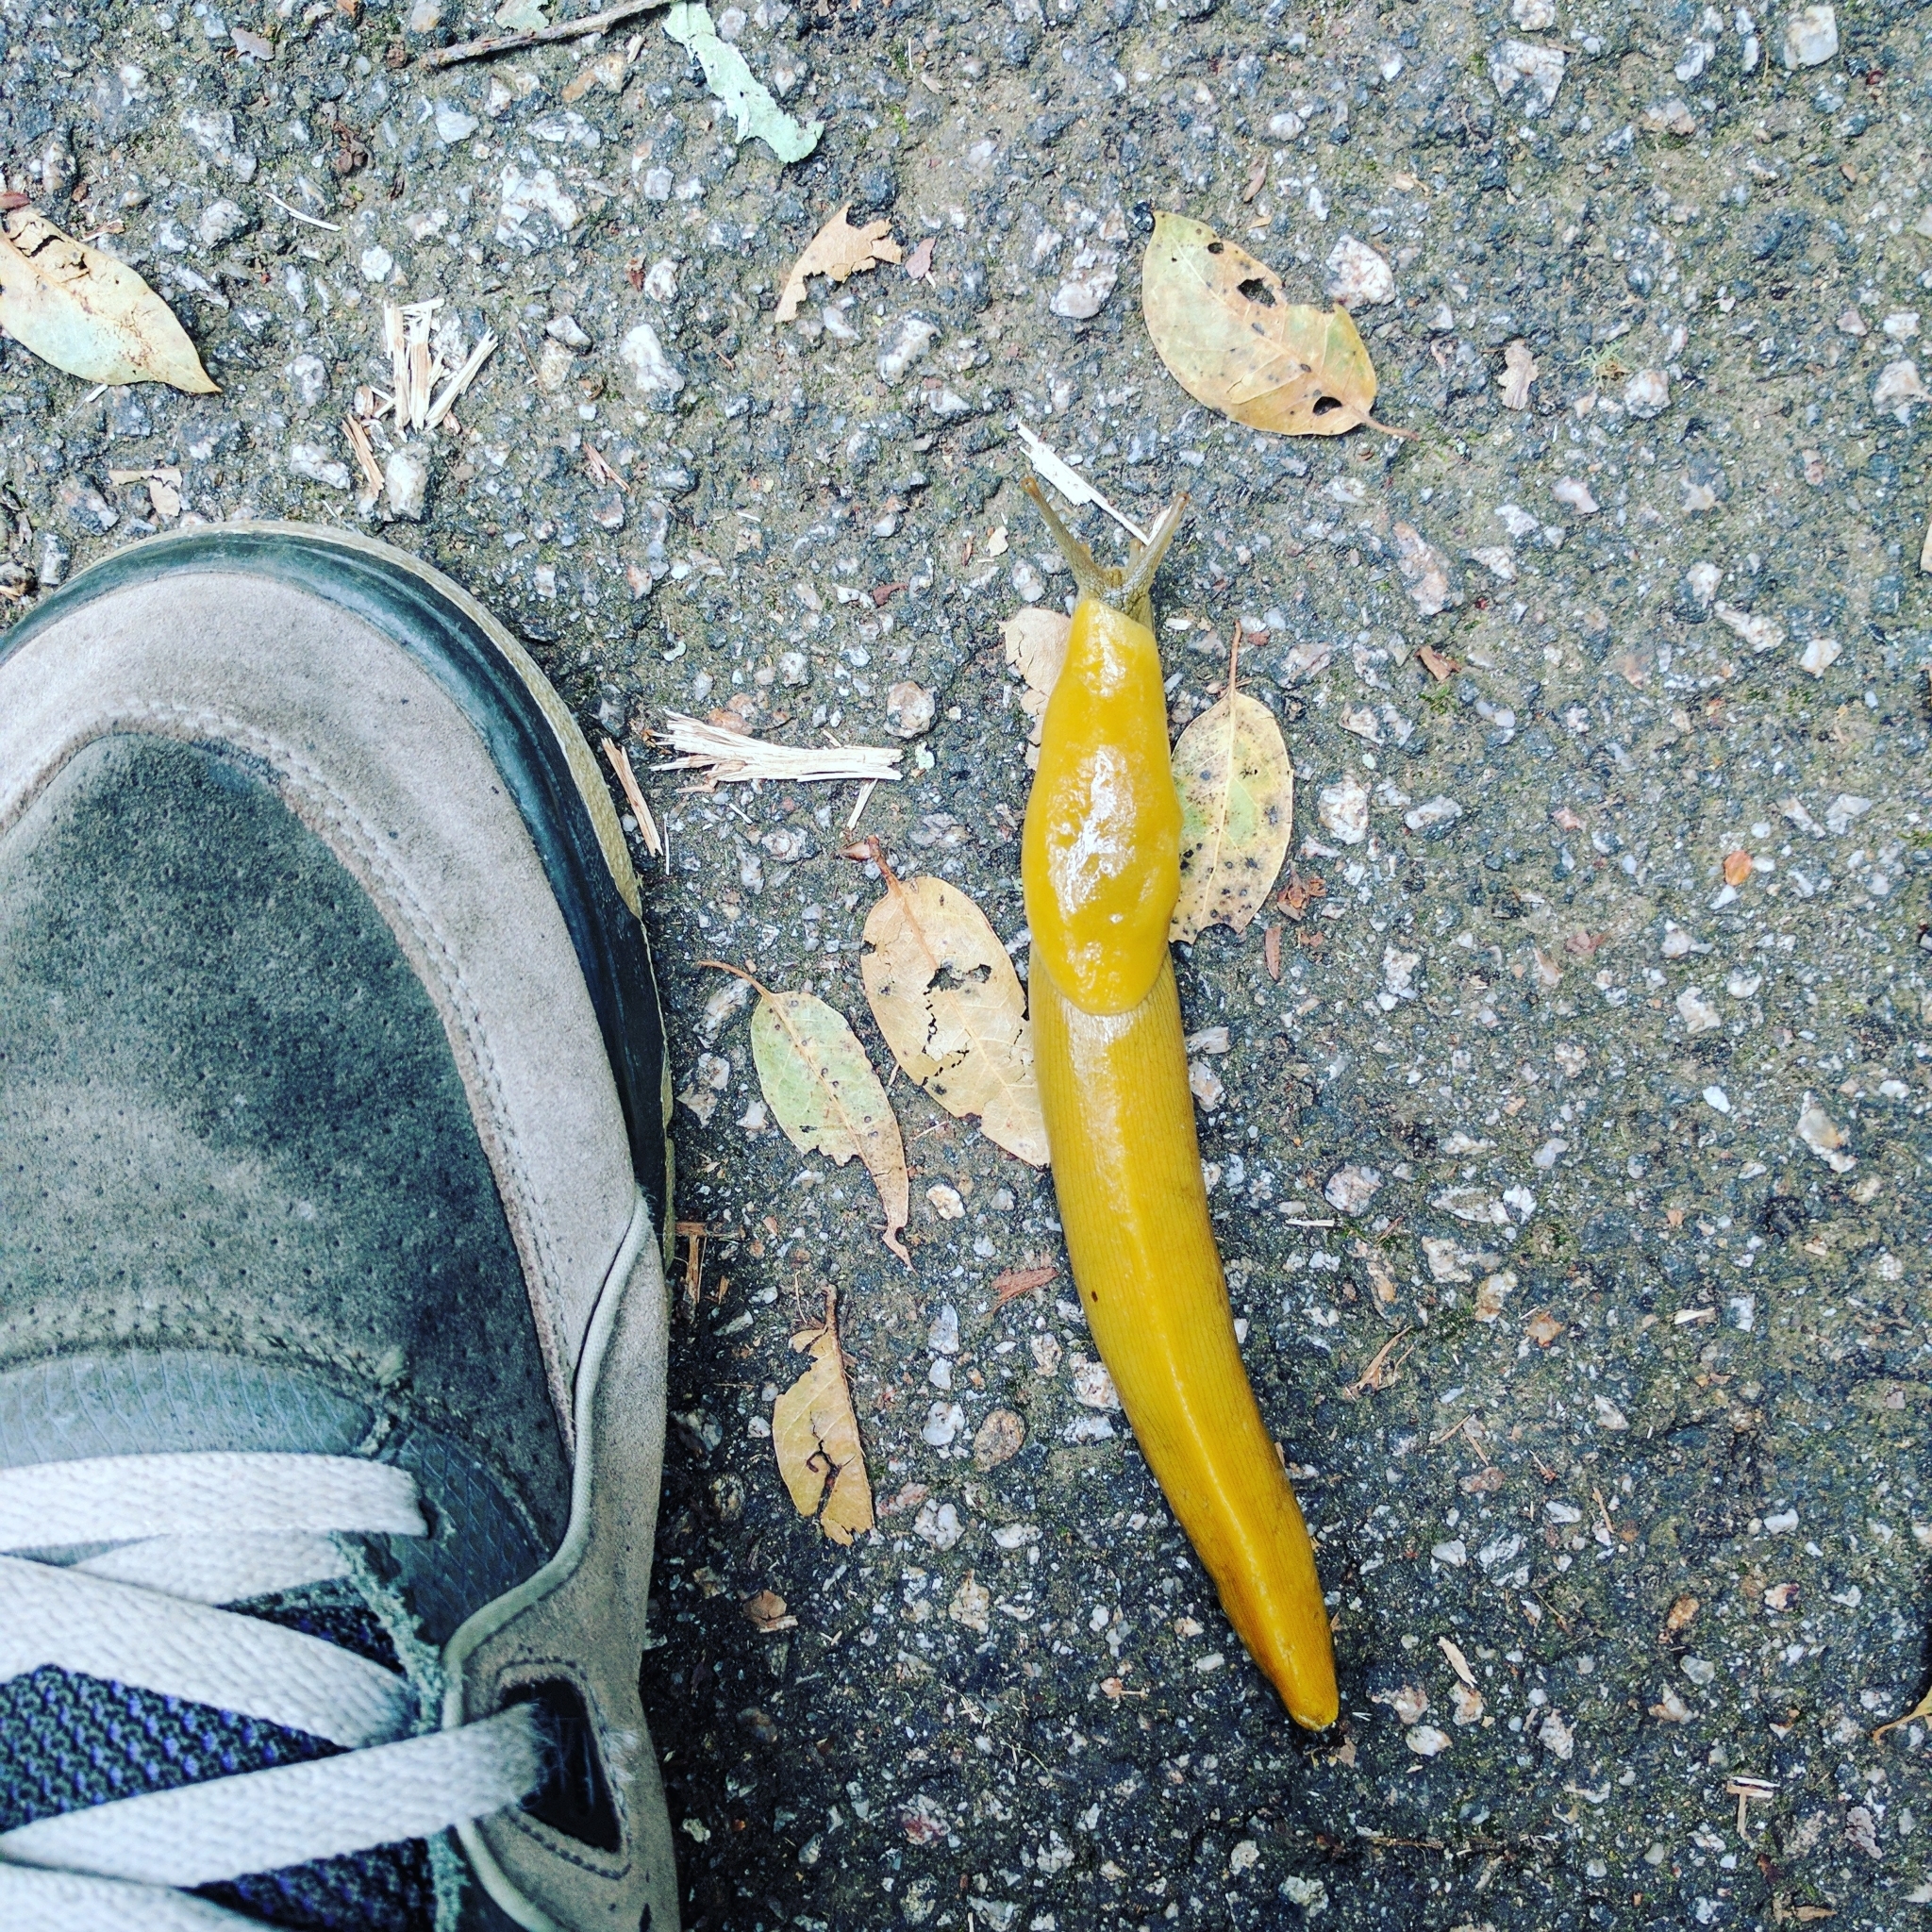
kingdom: Animalia
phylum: Mollusca
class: Gastropoda
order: Stylommatophora
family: Ariolimacidae
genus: Ariolimax
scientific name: Ariolimax dolichophallus
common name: Slender banana slug
